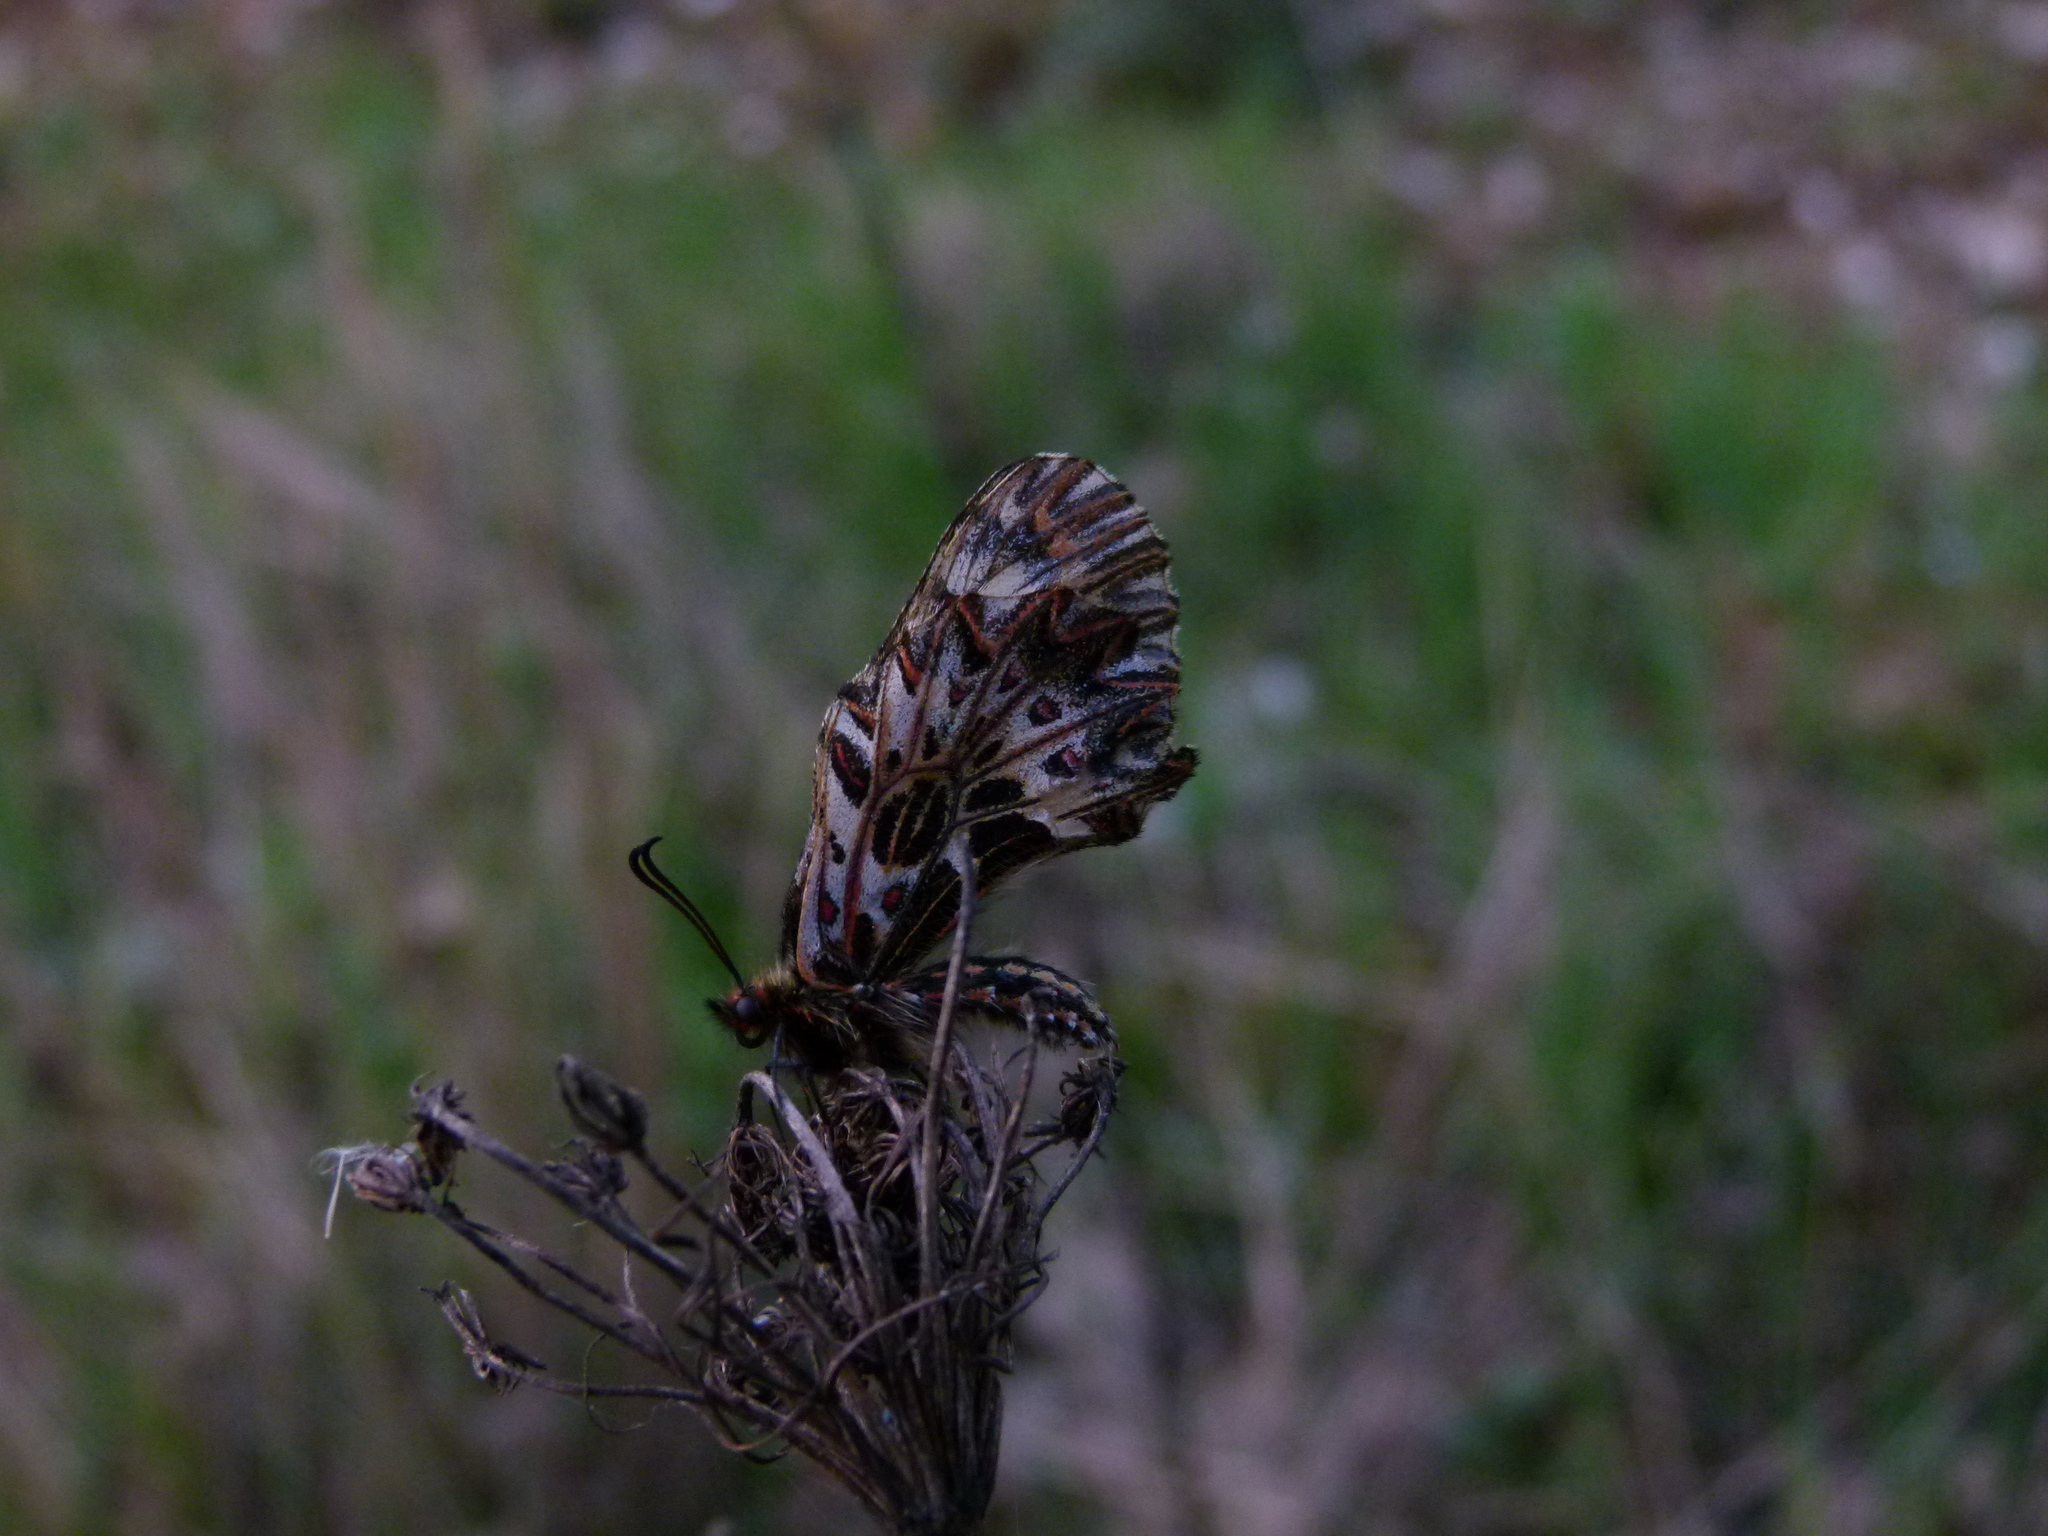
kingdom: Animalia
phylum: Arthropoda
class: Insecta
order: Lepidoptera
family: Papilionidae
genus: Zerynthia
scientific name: Zerynthia polyxena
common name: Southern festoon
